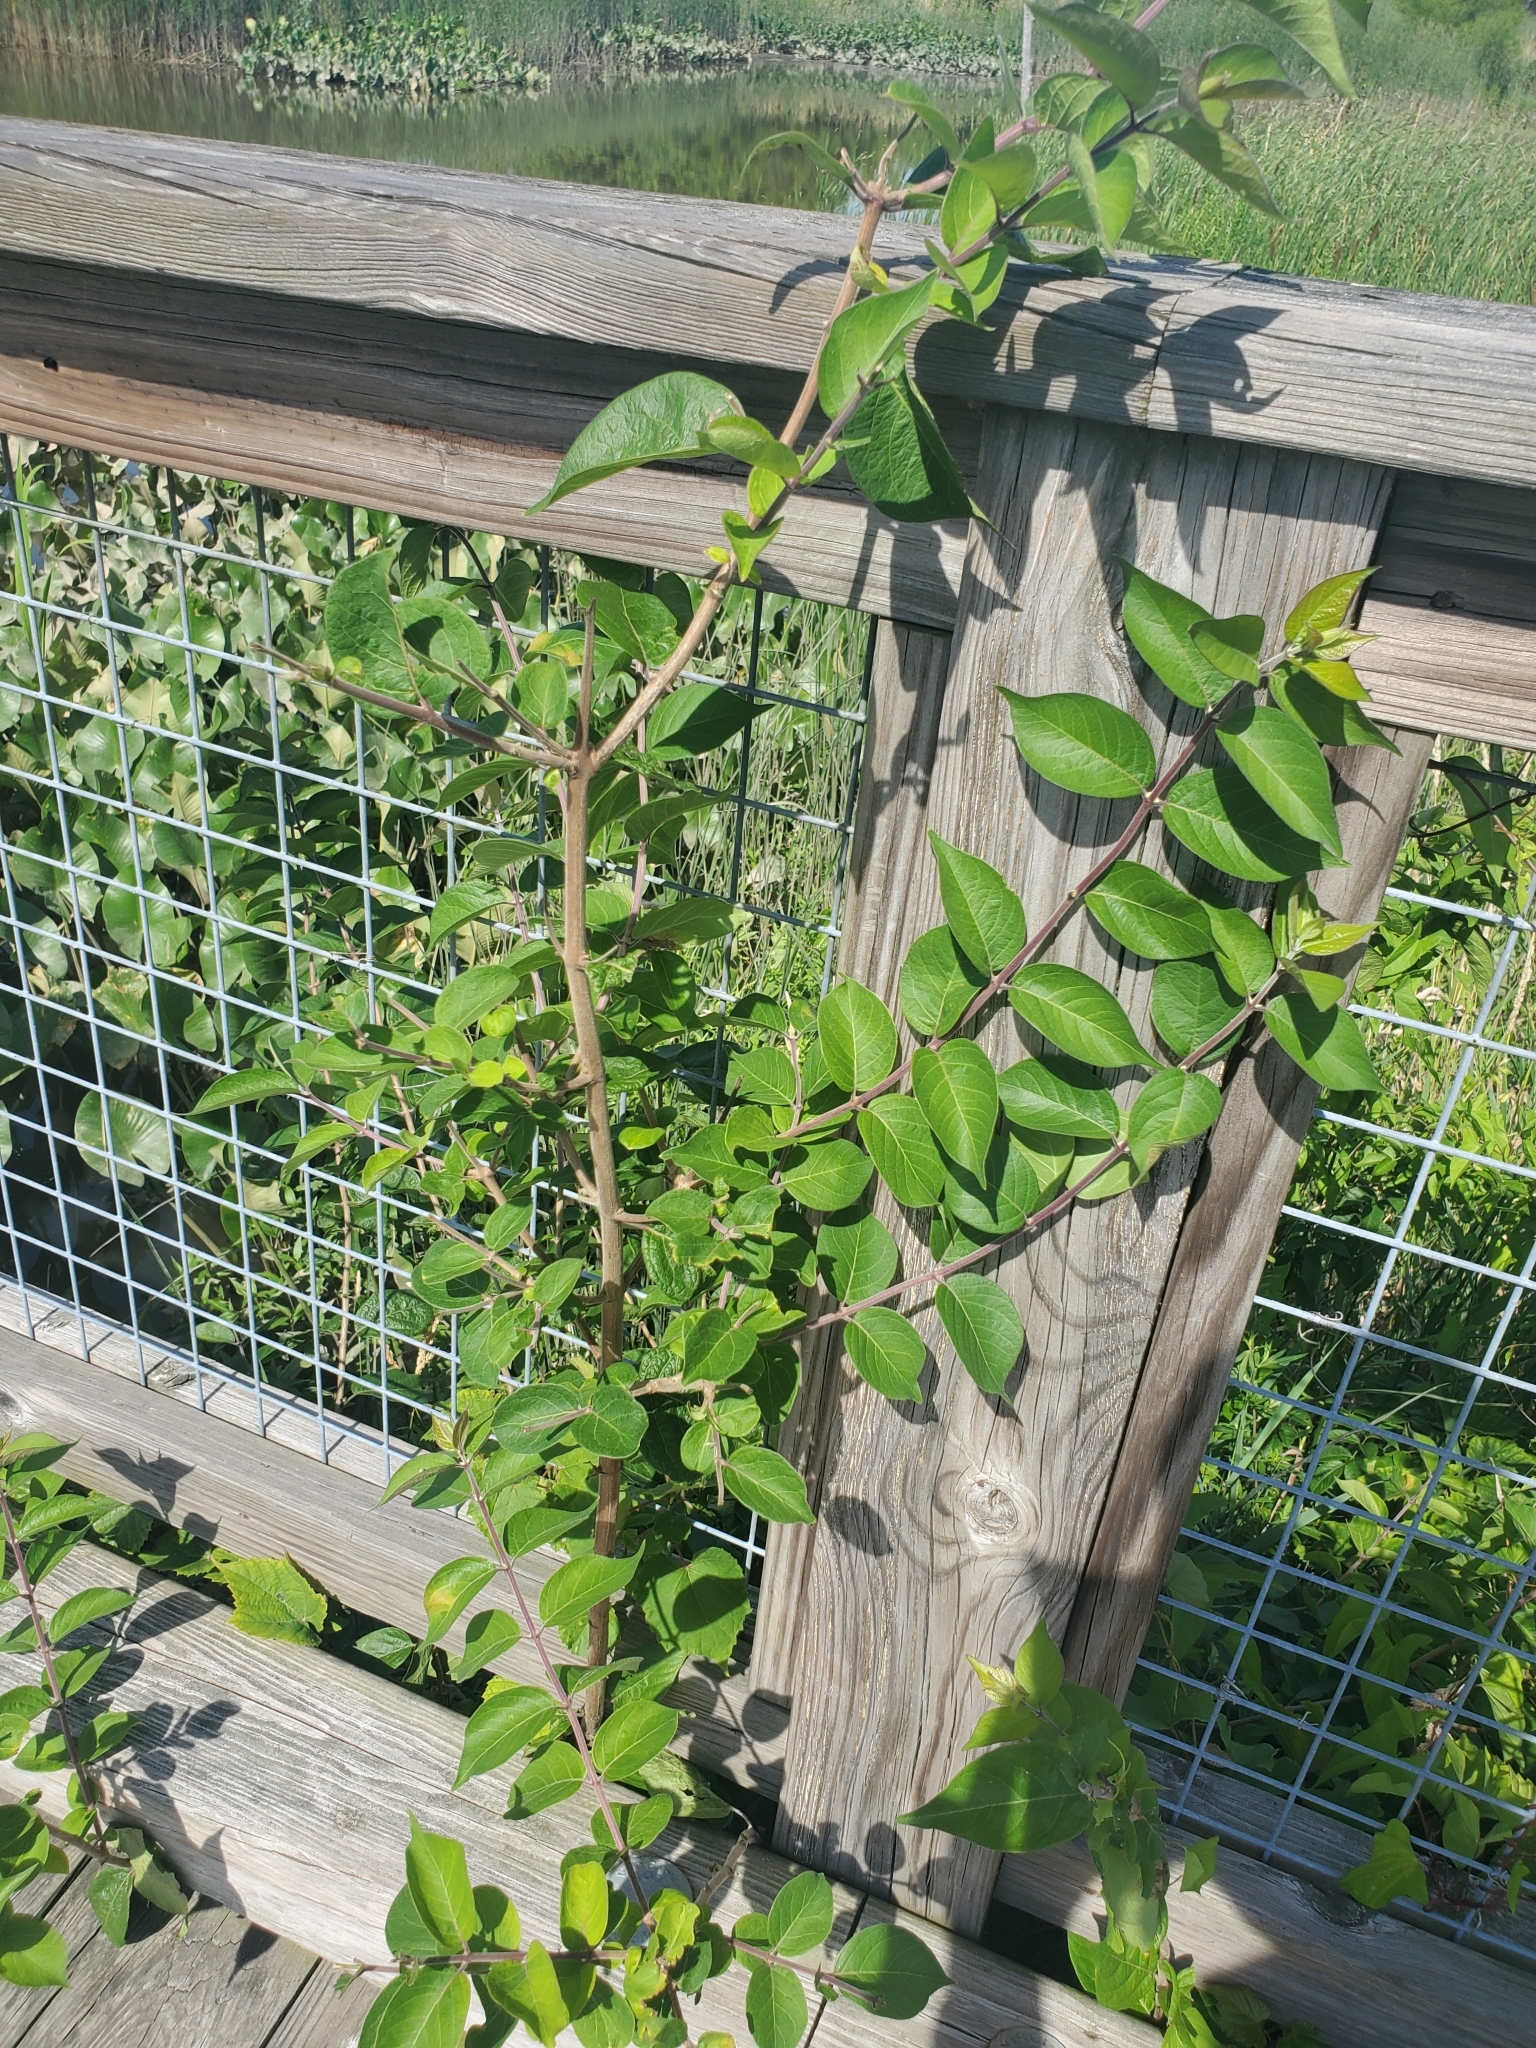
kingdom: Plantae
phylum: Tracheophyta
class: Magnoliopsida
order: Dipsacales
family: Caprifoliaceae
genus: Lonicera
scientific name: Lonicera maackii
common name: Amur honeysuckle
